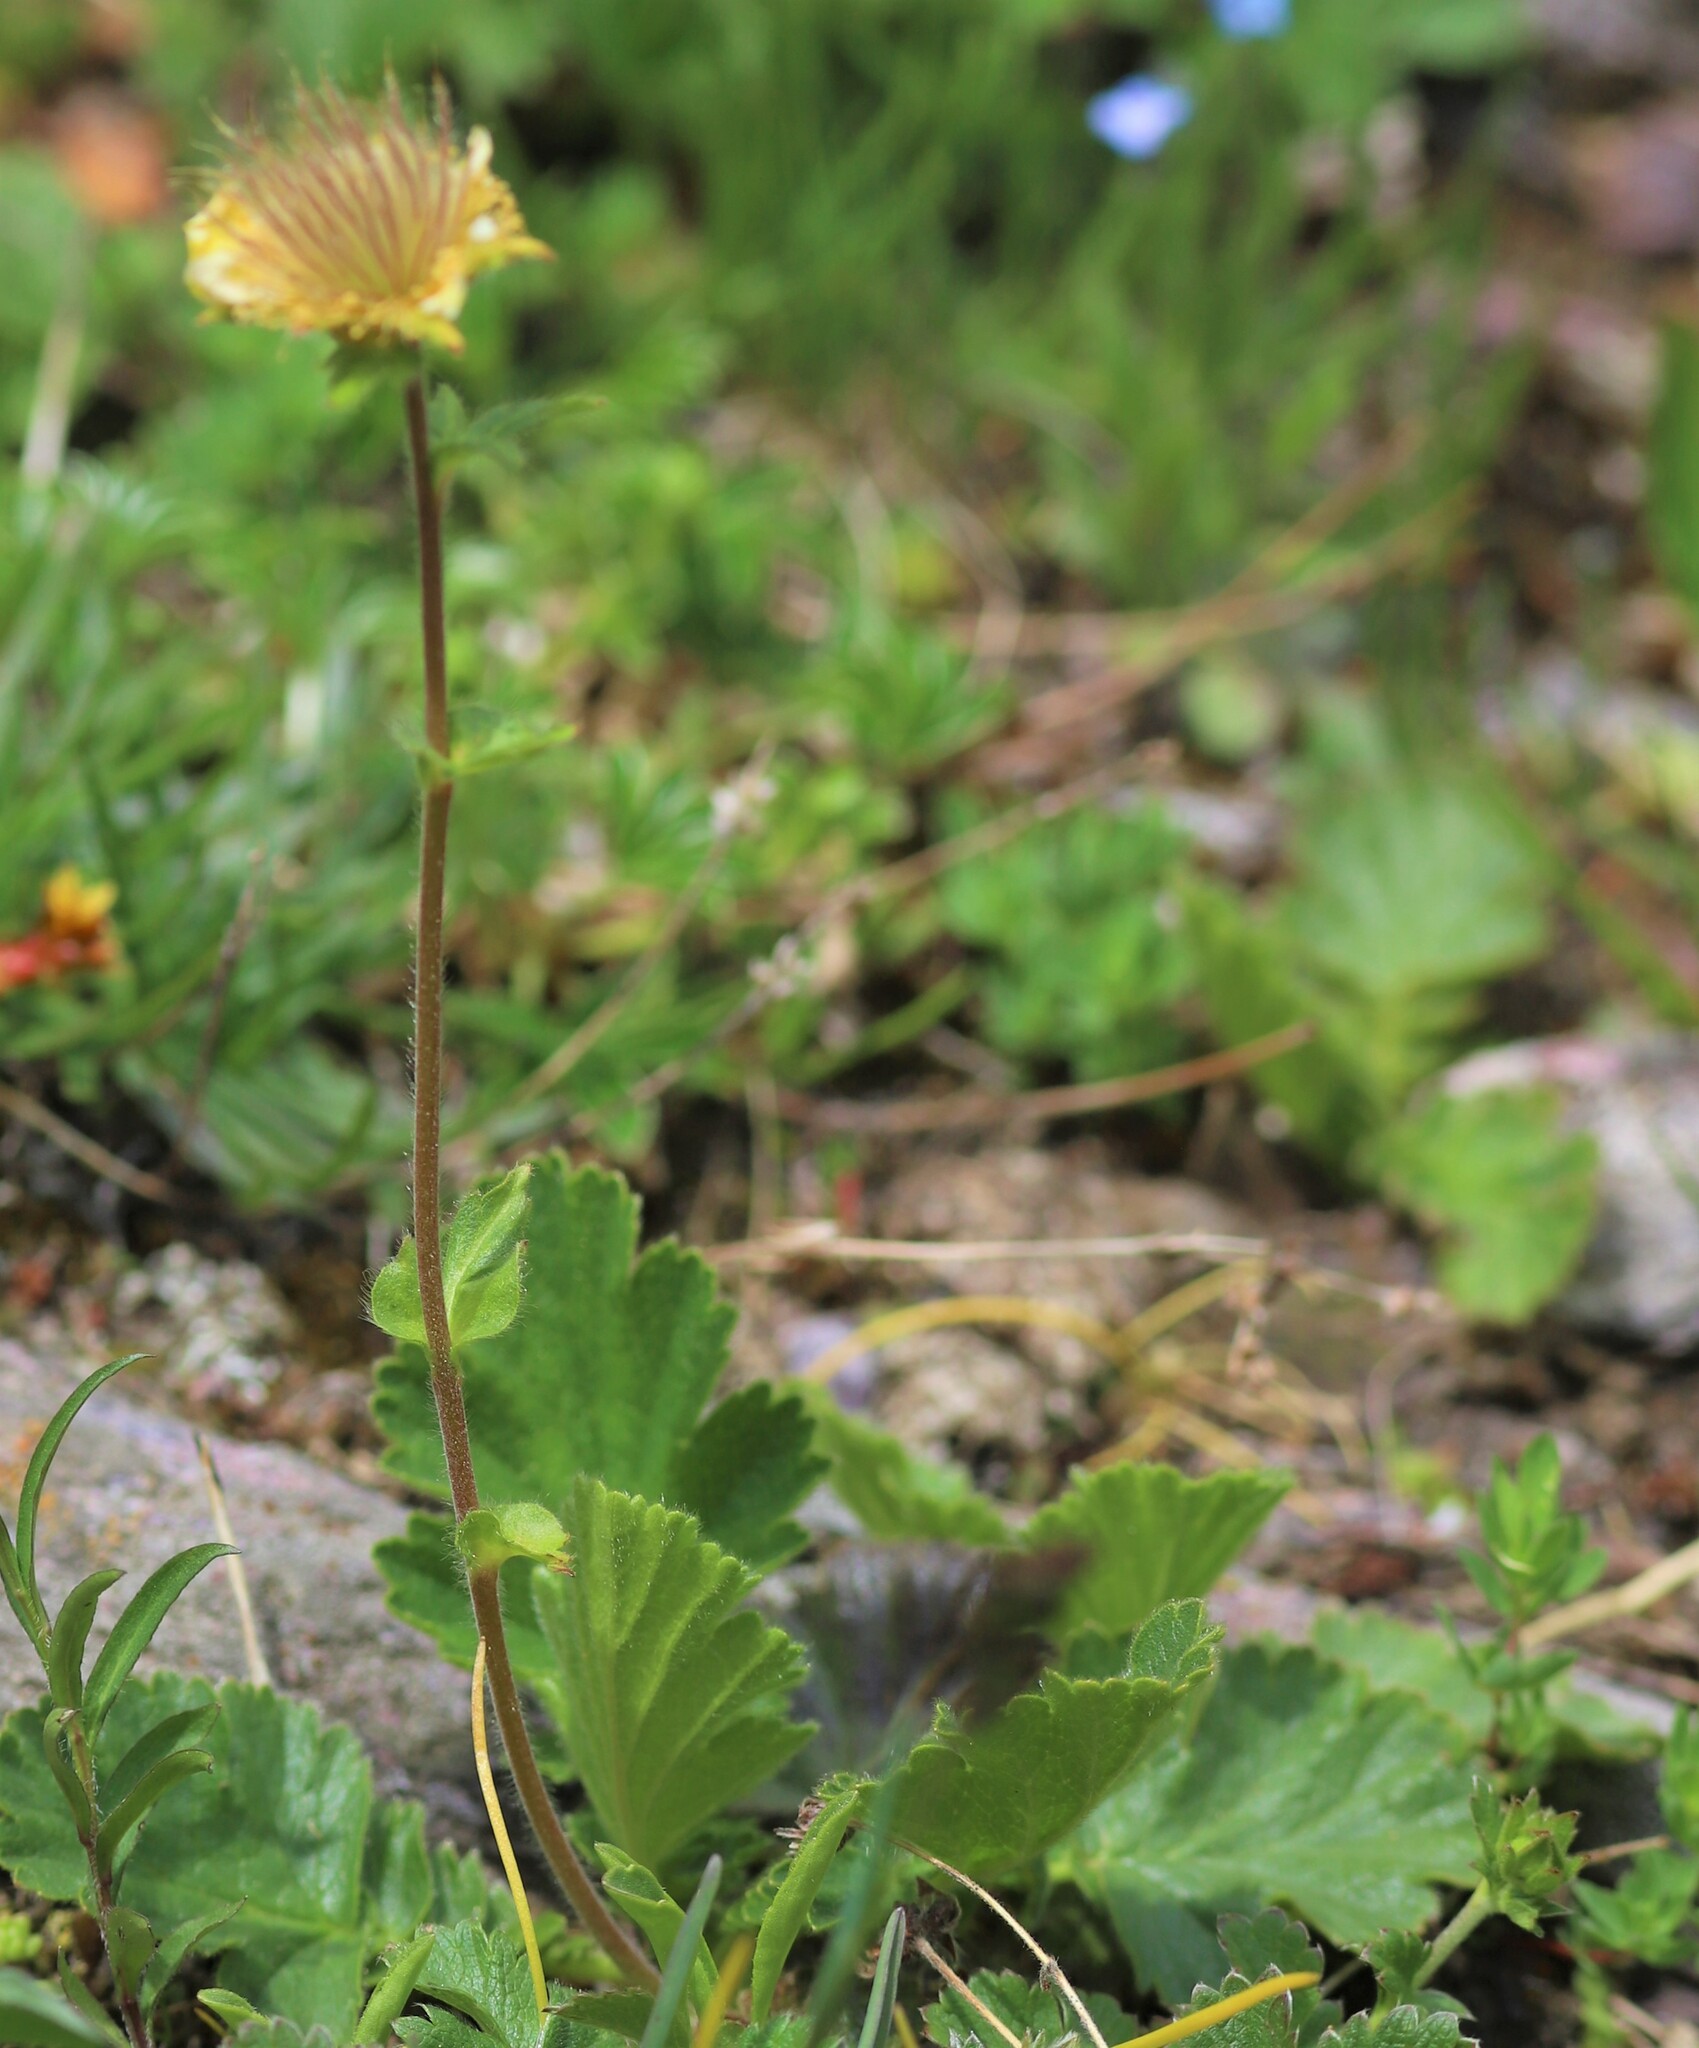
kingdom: Plantae
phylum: Tracheophyta
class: Magnoliopsida
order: Rosales
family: Rosaceae
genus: Geum
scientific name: Geum montanum
